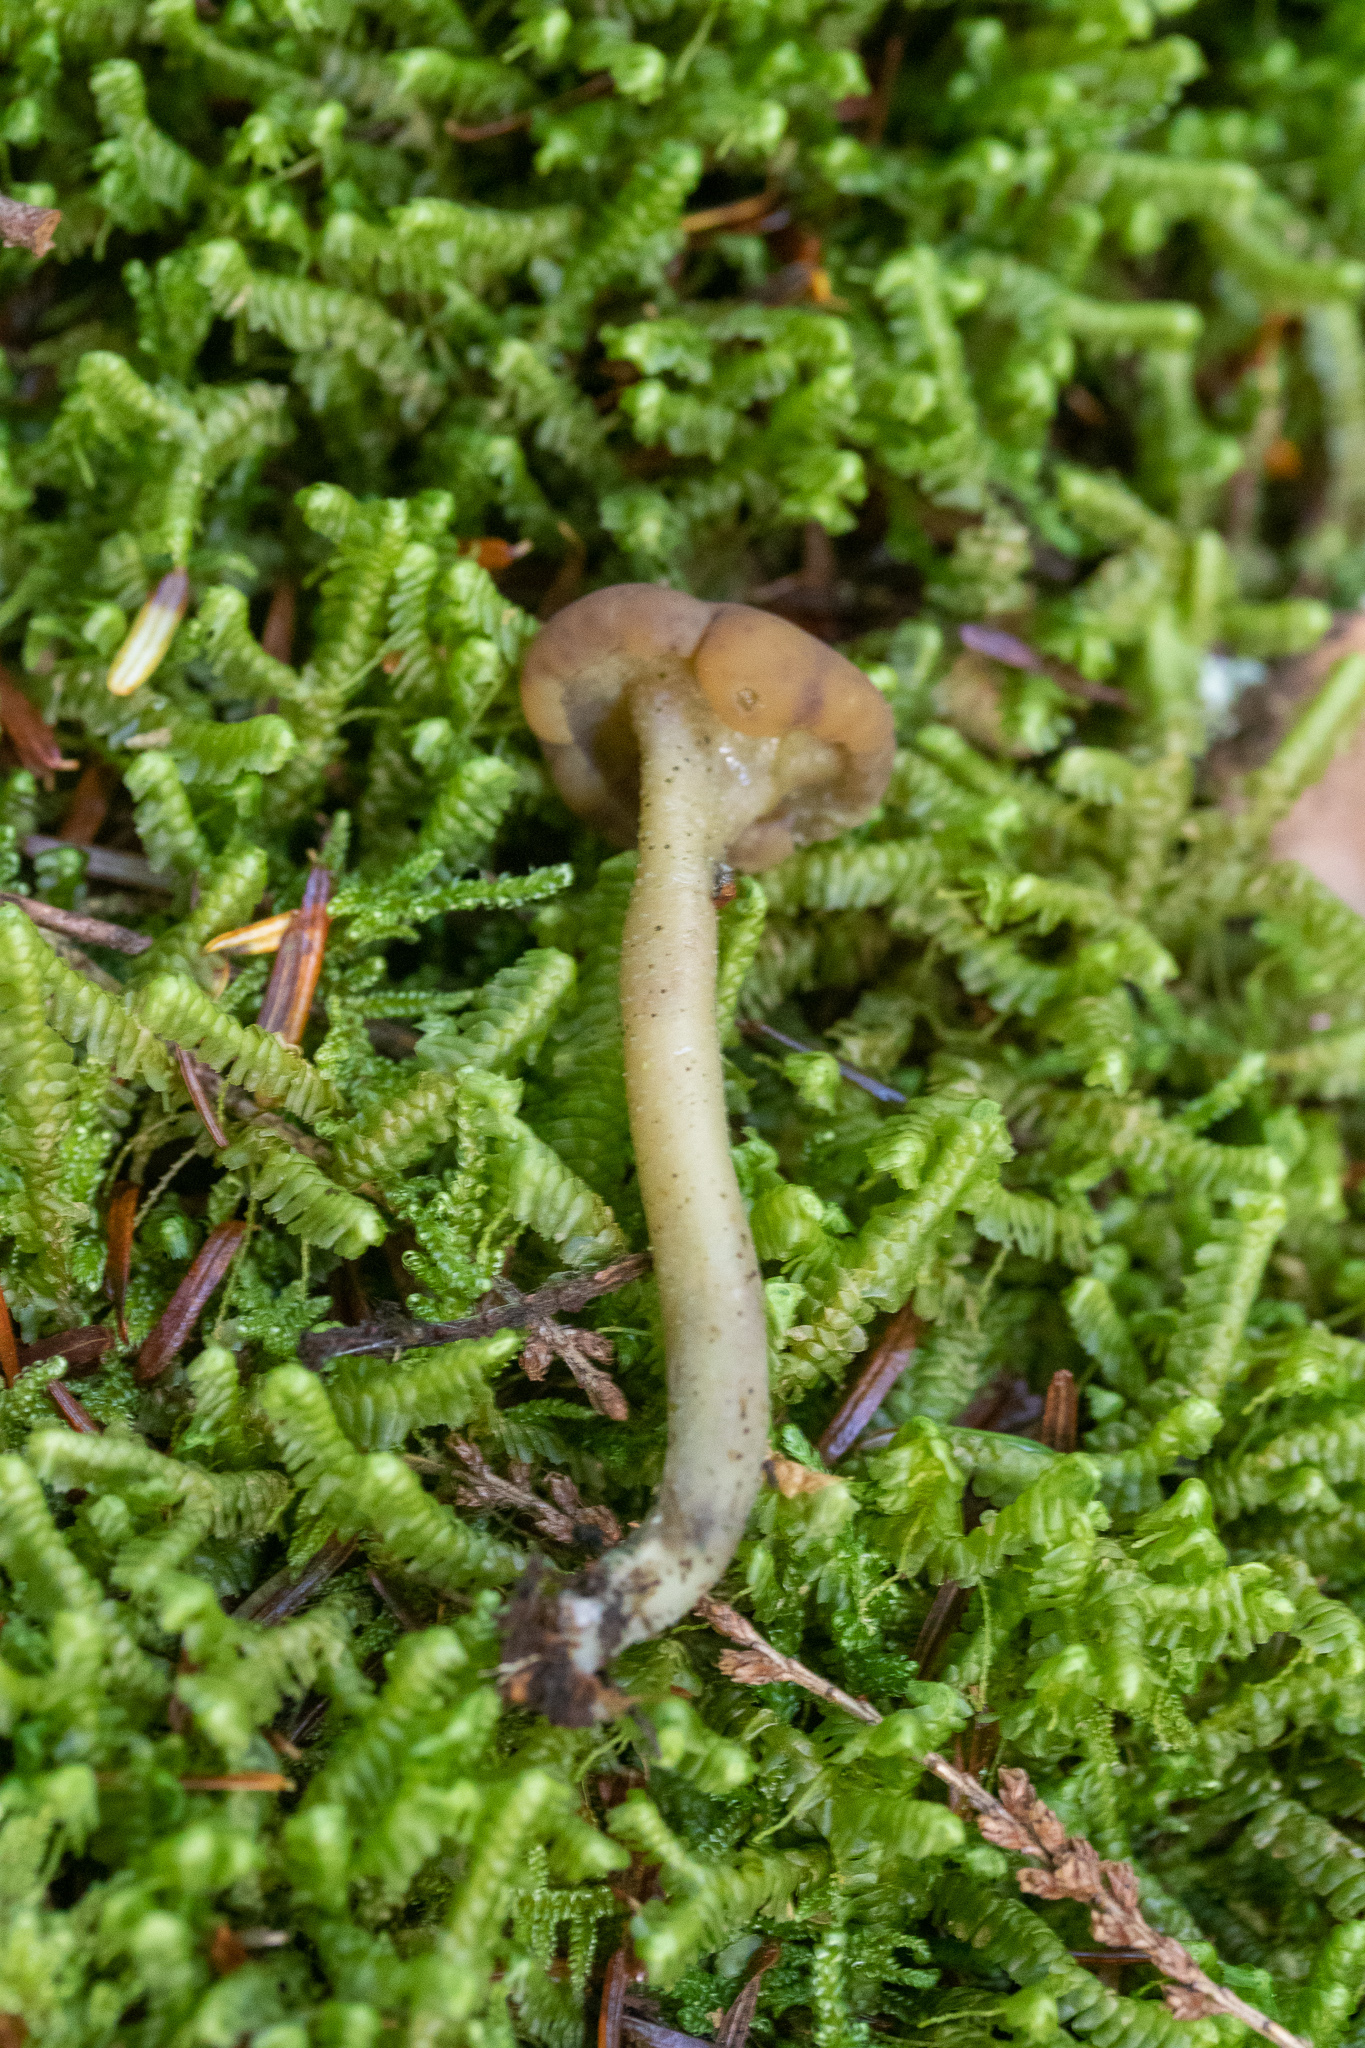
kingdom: Fungi
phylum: Ascomycota
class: Leotiomycetes
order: Leotiales
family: Leotiaceae
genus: Leotia
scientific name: Leotia lubrica
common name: Jellybaby
